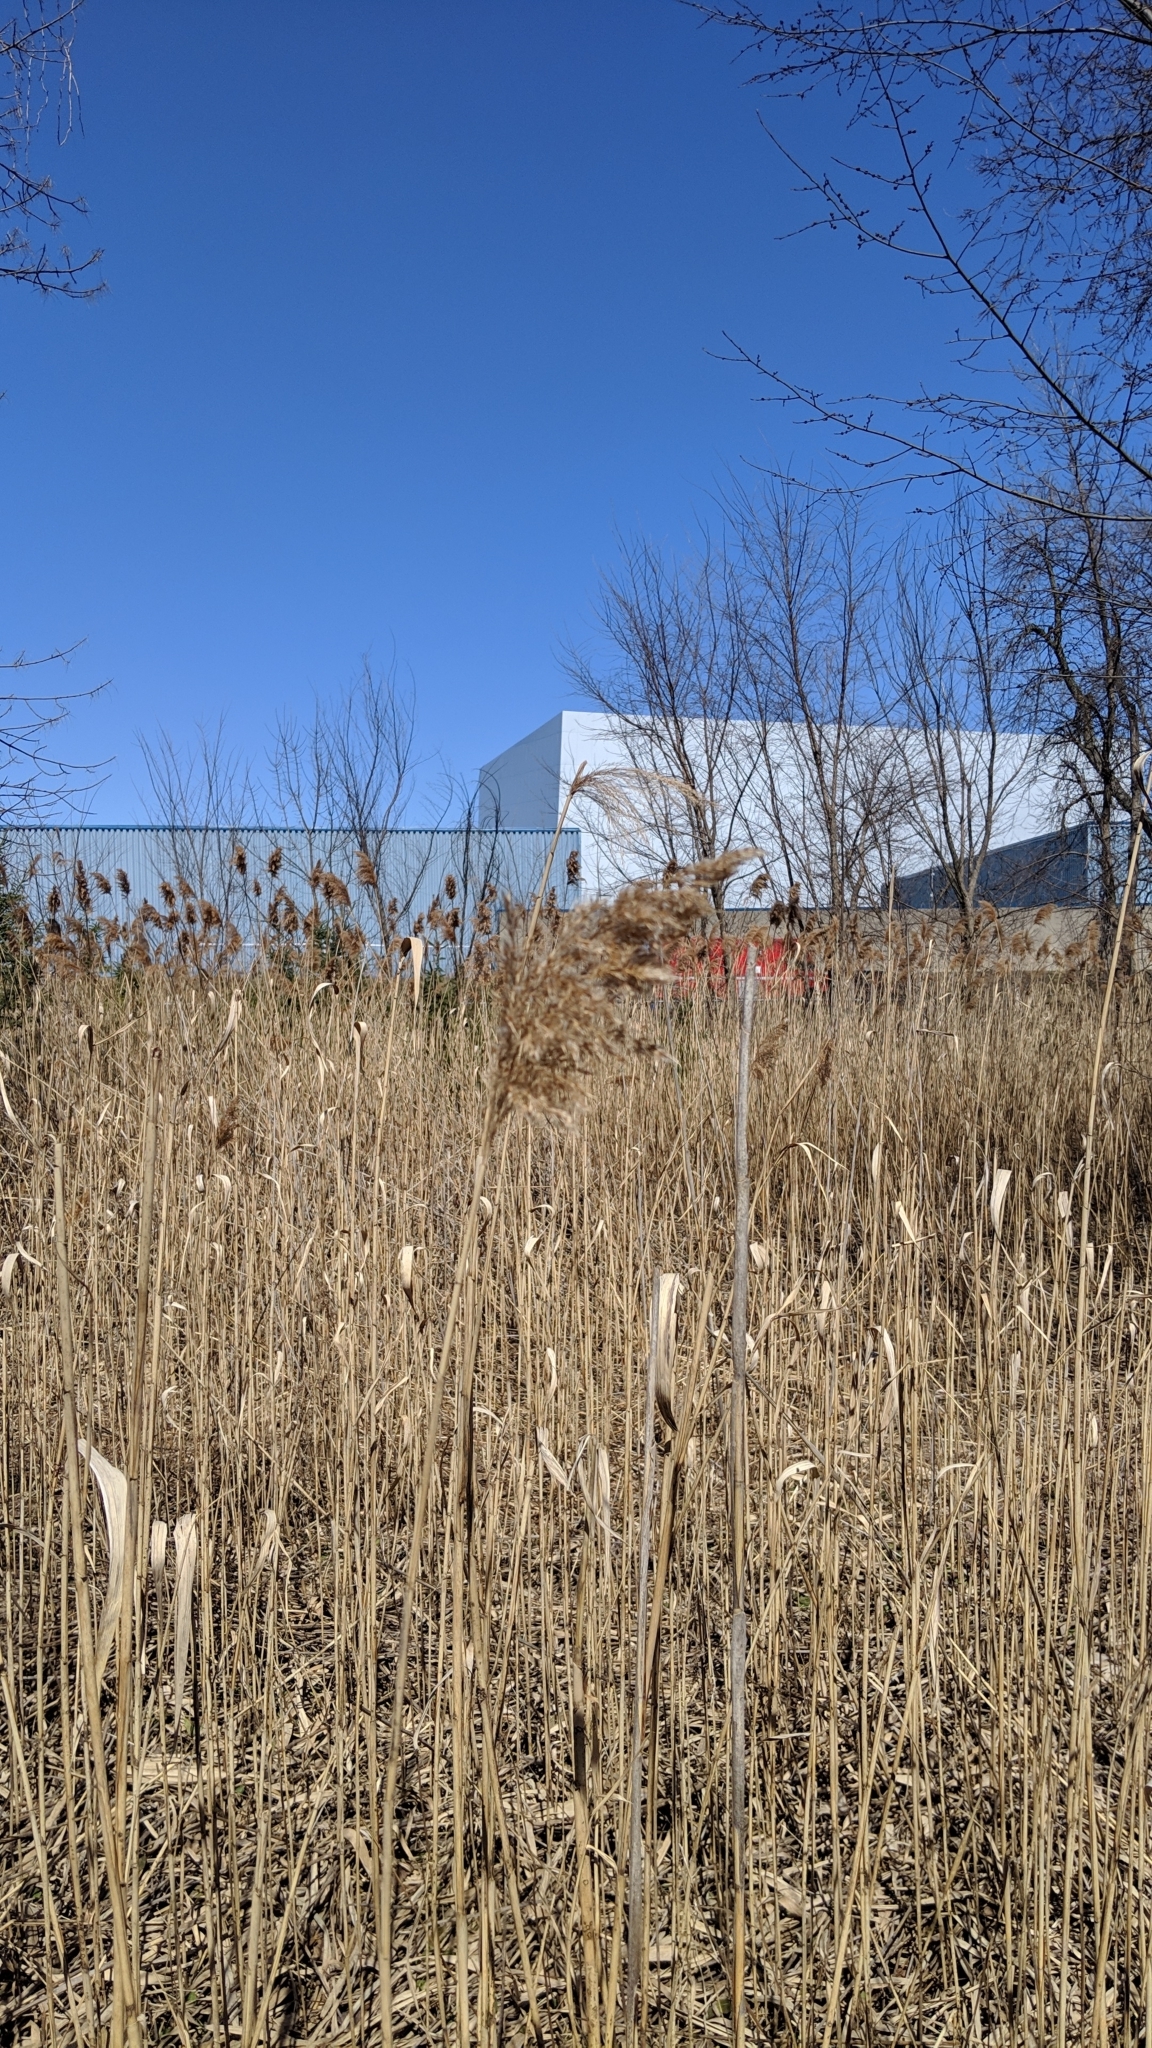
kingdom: Plantae
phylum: Tracheophyta
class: Liliopsida
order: Poales
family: Poaceae
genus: Phragmites
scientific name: Phragmites australis
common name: Common reed
